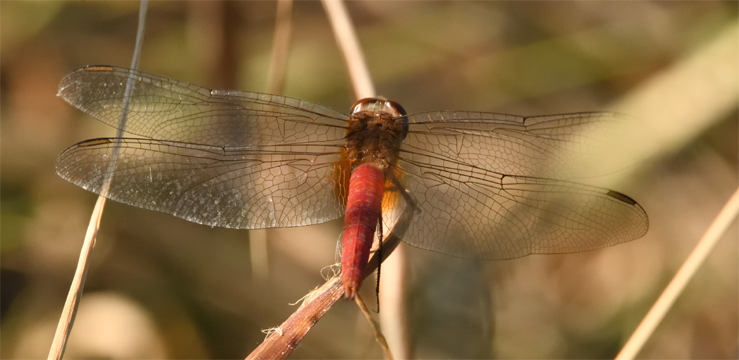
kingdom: Animalia
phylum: Arthropoda
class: Insecta
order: Odonata
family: Libellulidae
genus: Brachymesia
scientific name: Brachymesia furcata
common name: Red-taled pennant
